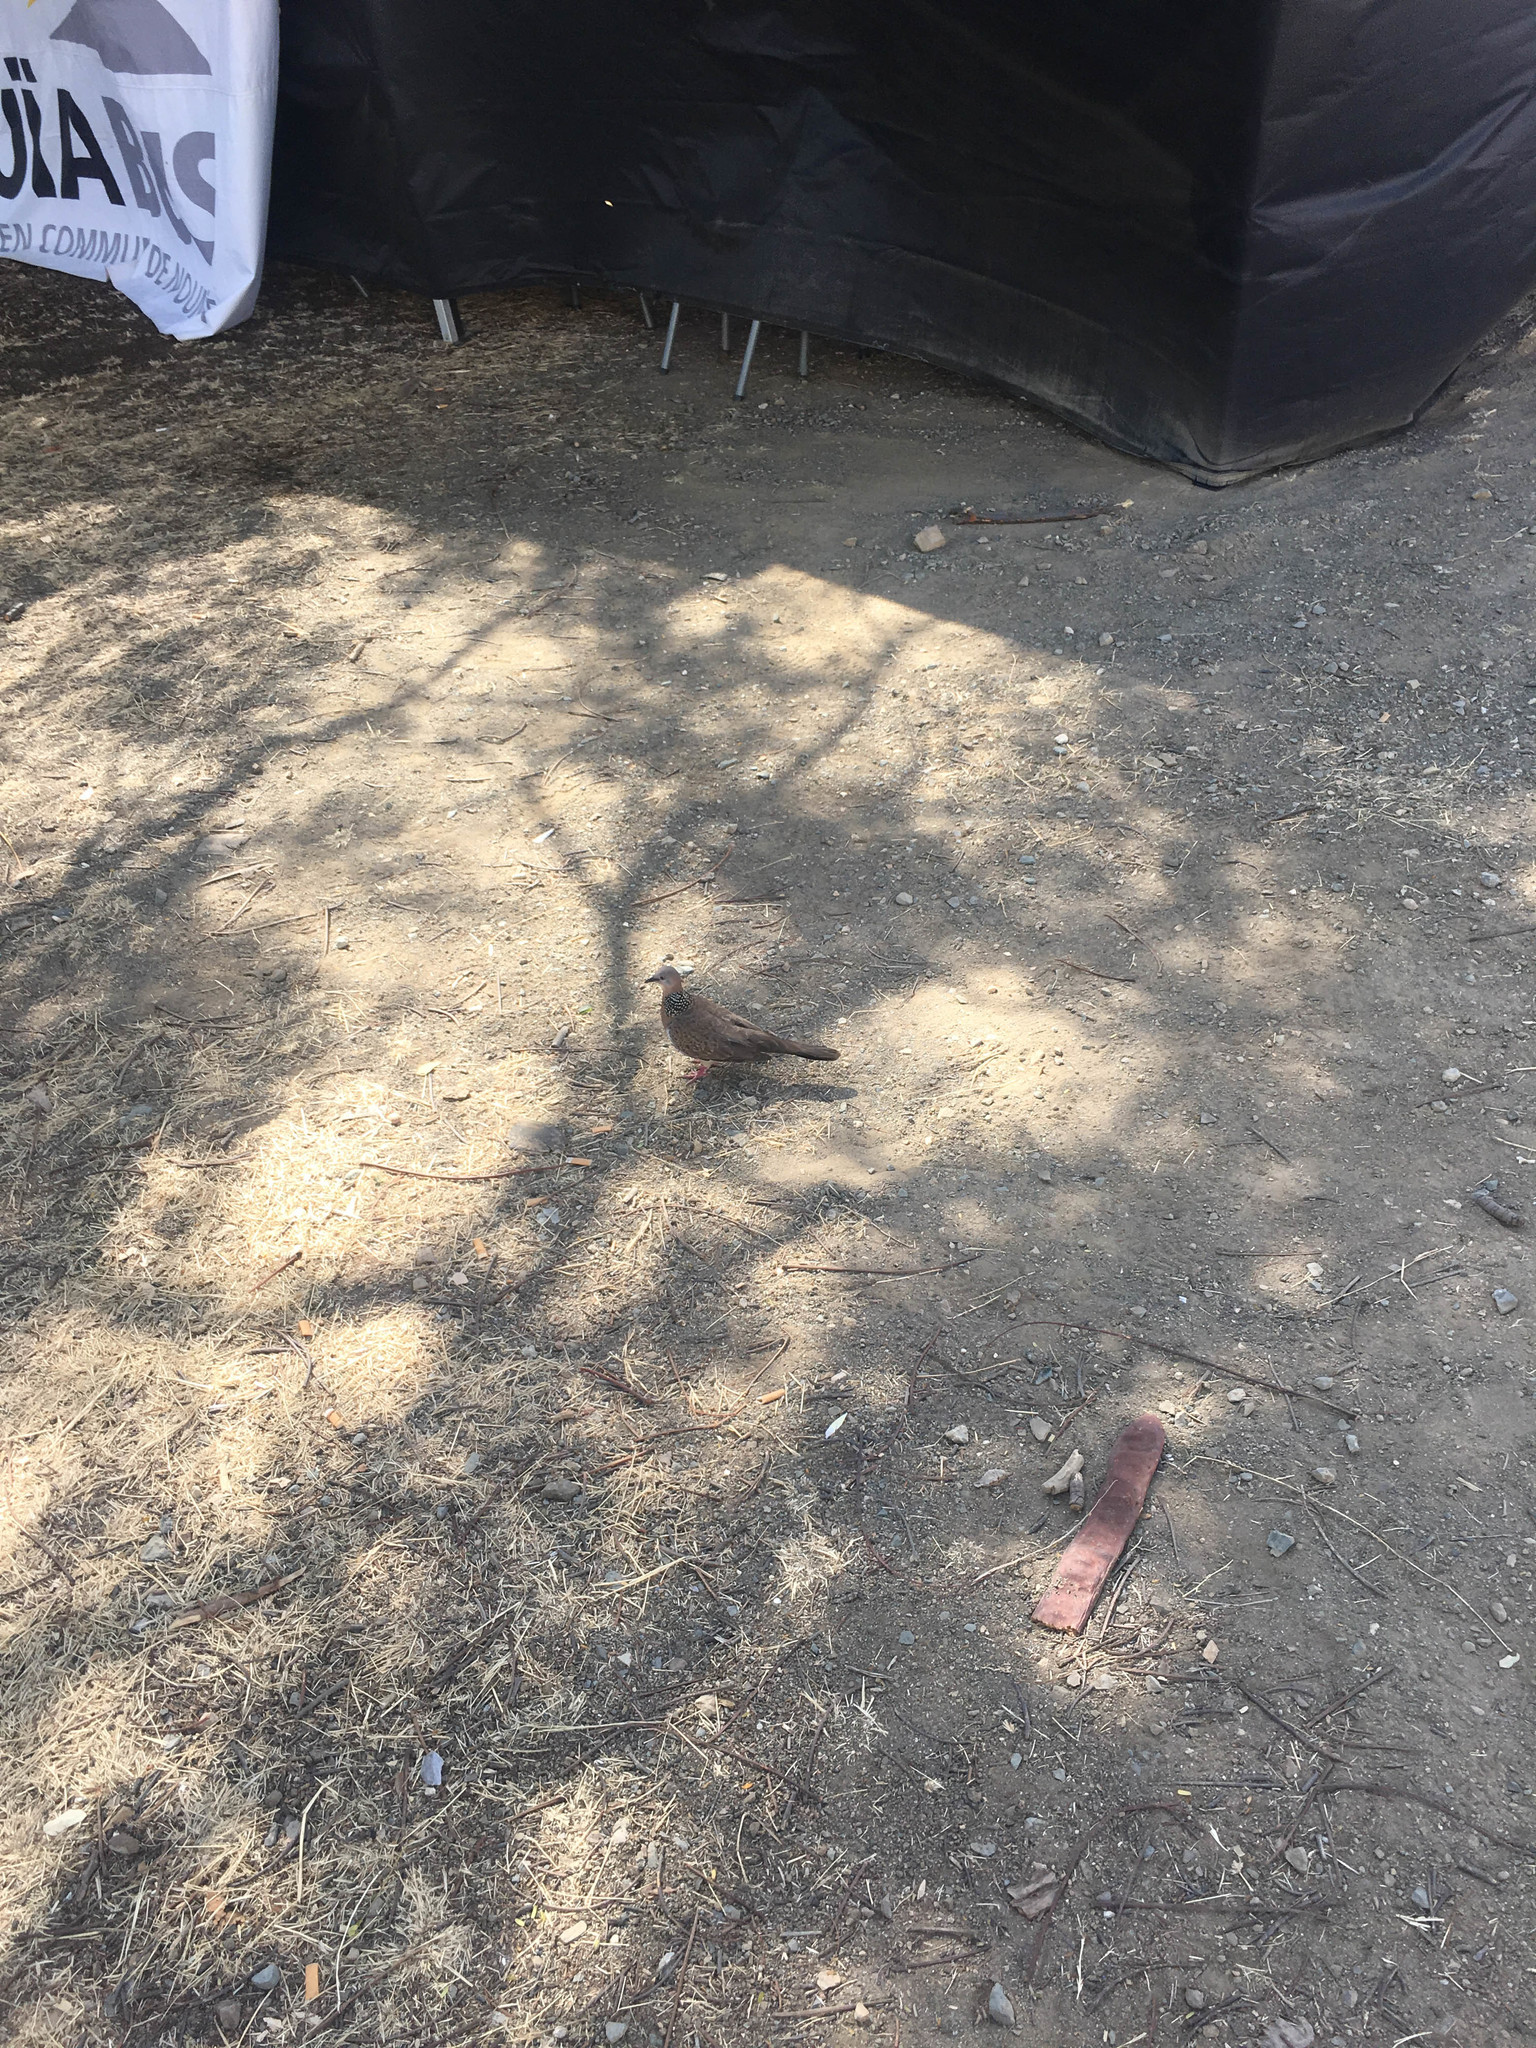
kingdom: Animalia
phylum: Chordata
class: Aves
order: Columbiformes
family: Columbidae
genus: Spilopelia
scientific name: Spilopelia chinensis
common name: Spotted dove
